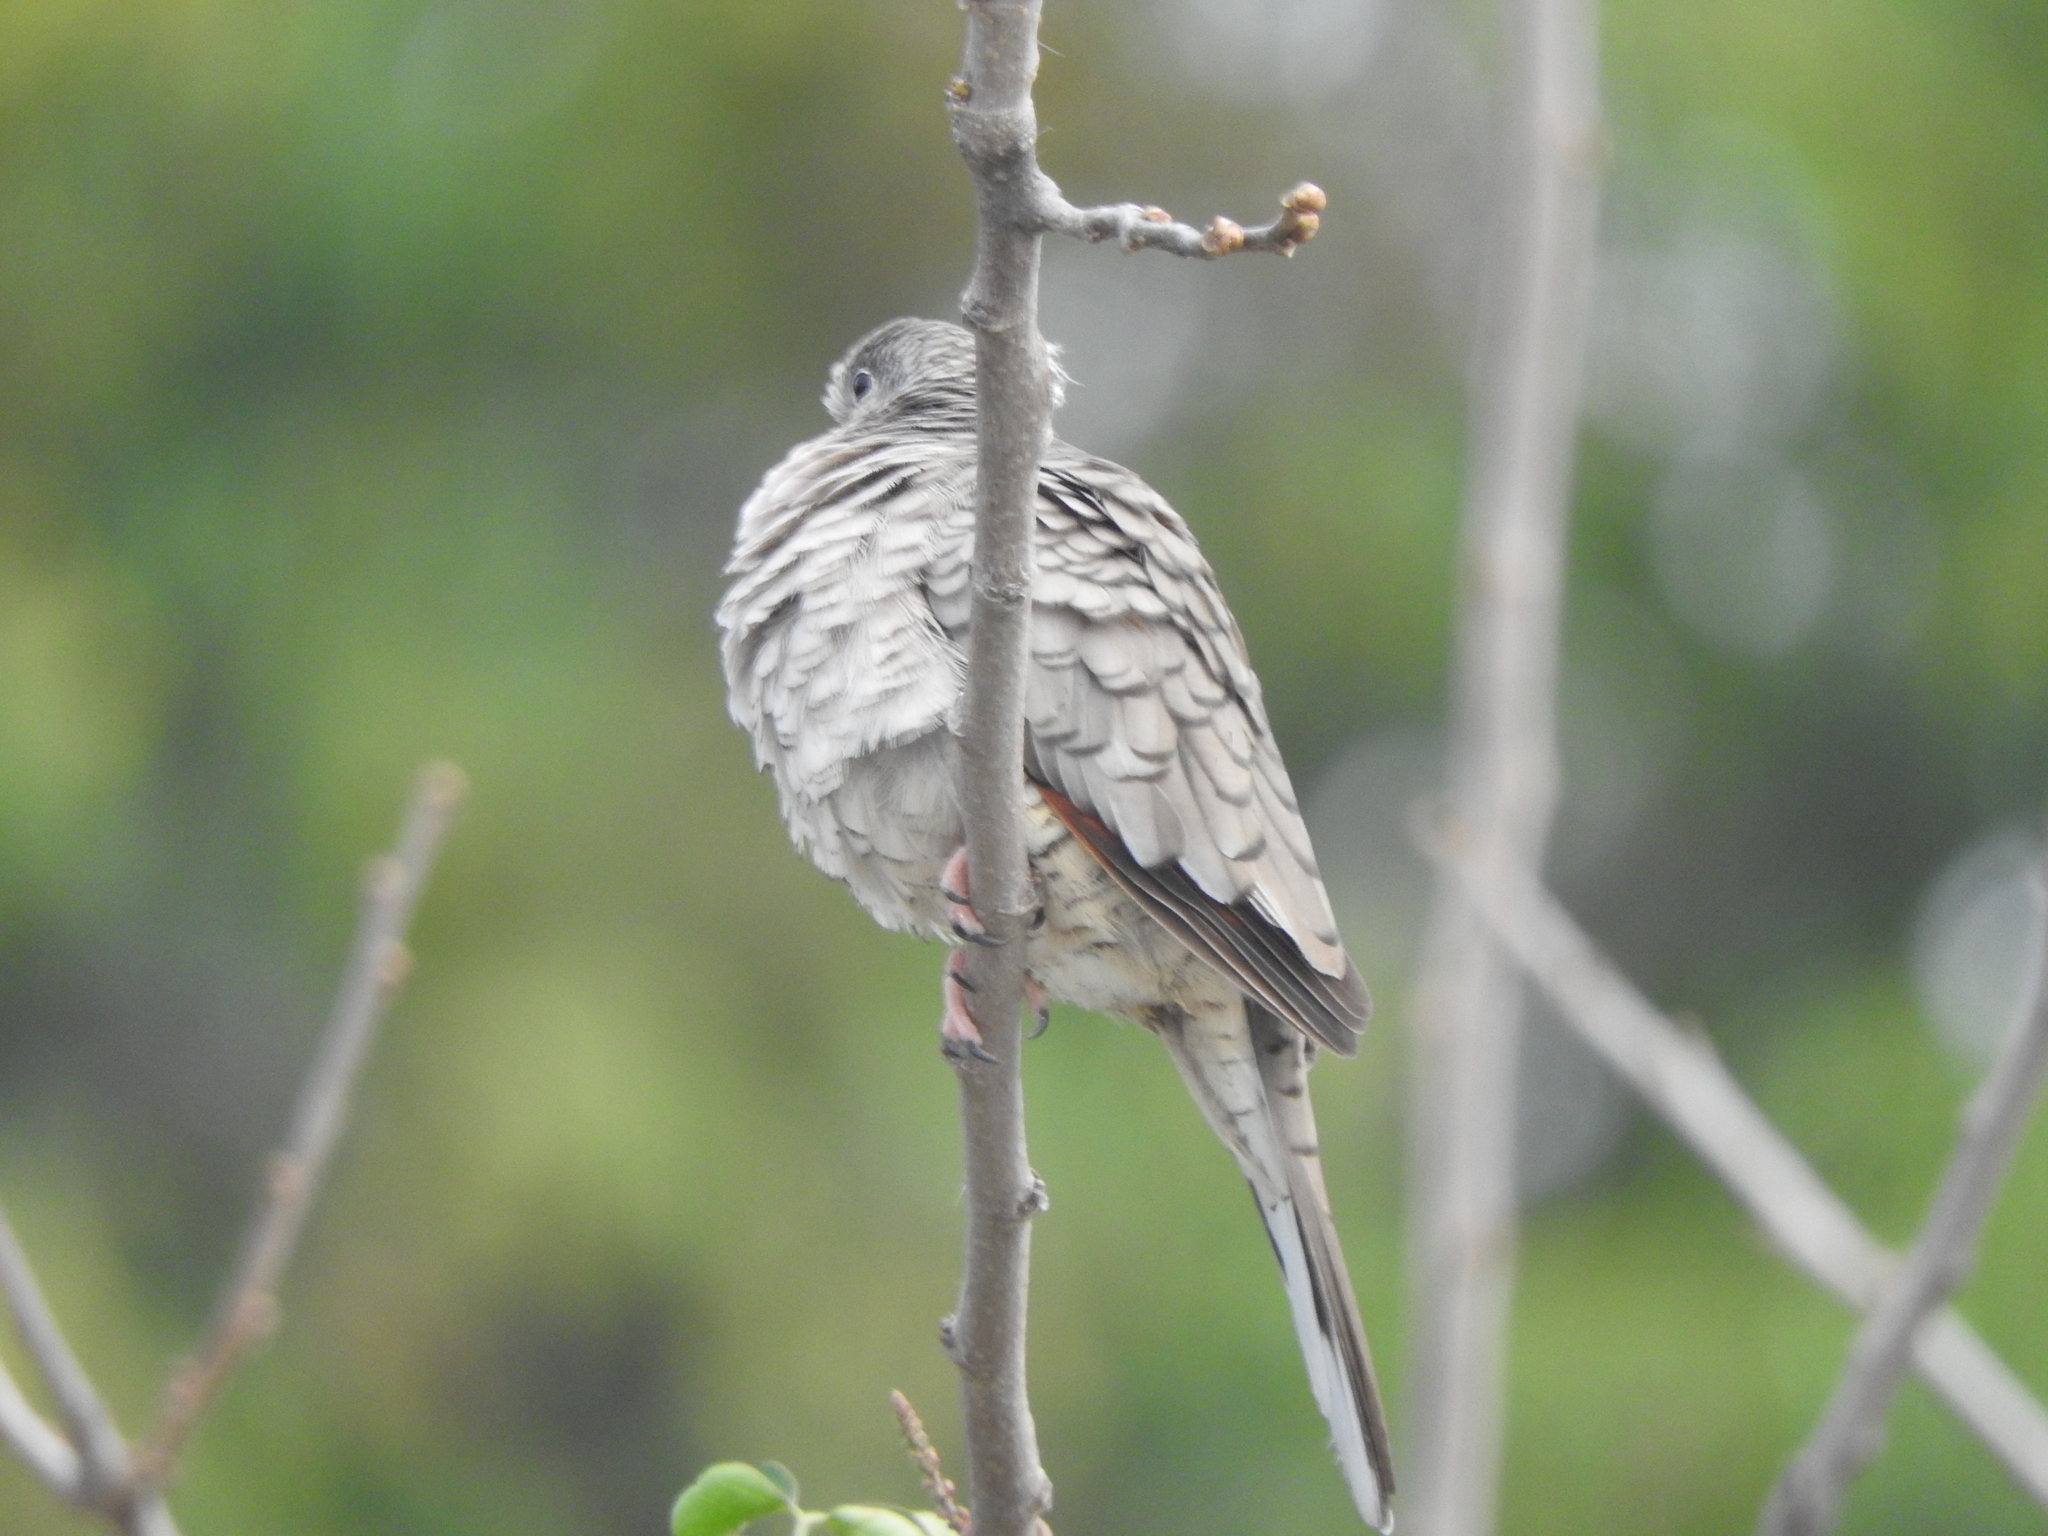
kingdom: Animalia
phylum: Chordata
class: Aves
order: Columbiformes
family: Columbidae
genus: Columbina
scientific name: Columbina inca
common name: Inca dove
